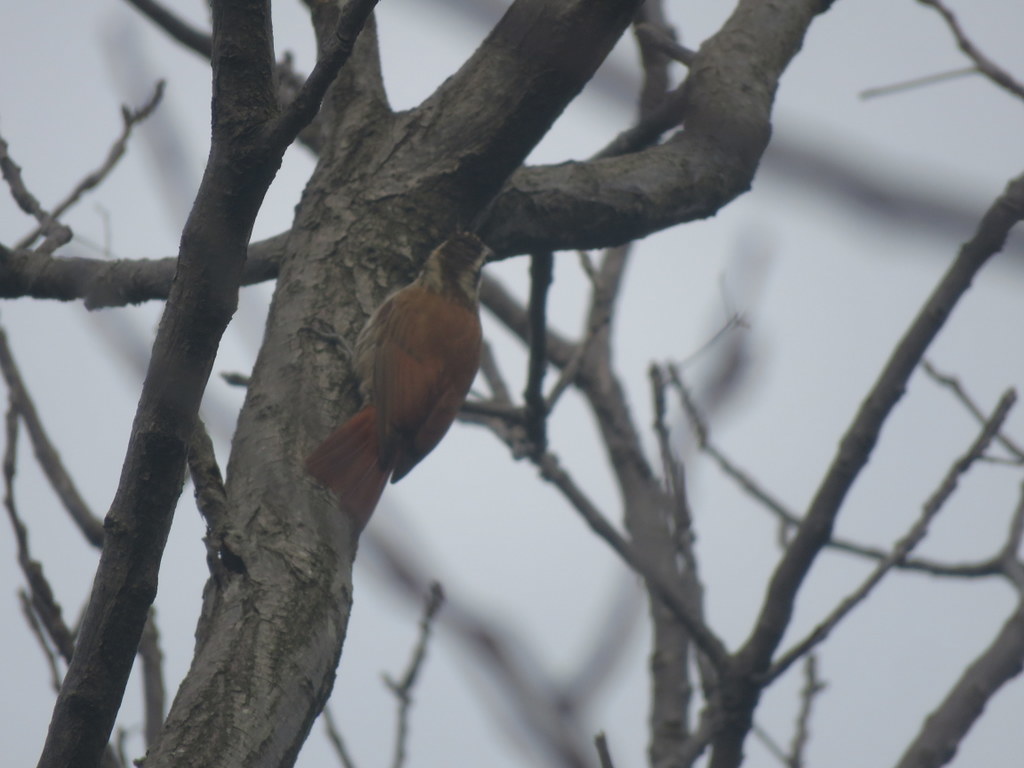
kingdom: Animalia
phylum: Chordata
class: Aves
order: Passeriformes
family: Furnariidae
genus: Lepidocolaptes
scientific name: Lepidocolaptes angustirostris
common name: Narrow-billed woodcreeper
